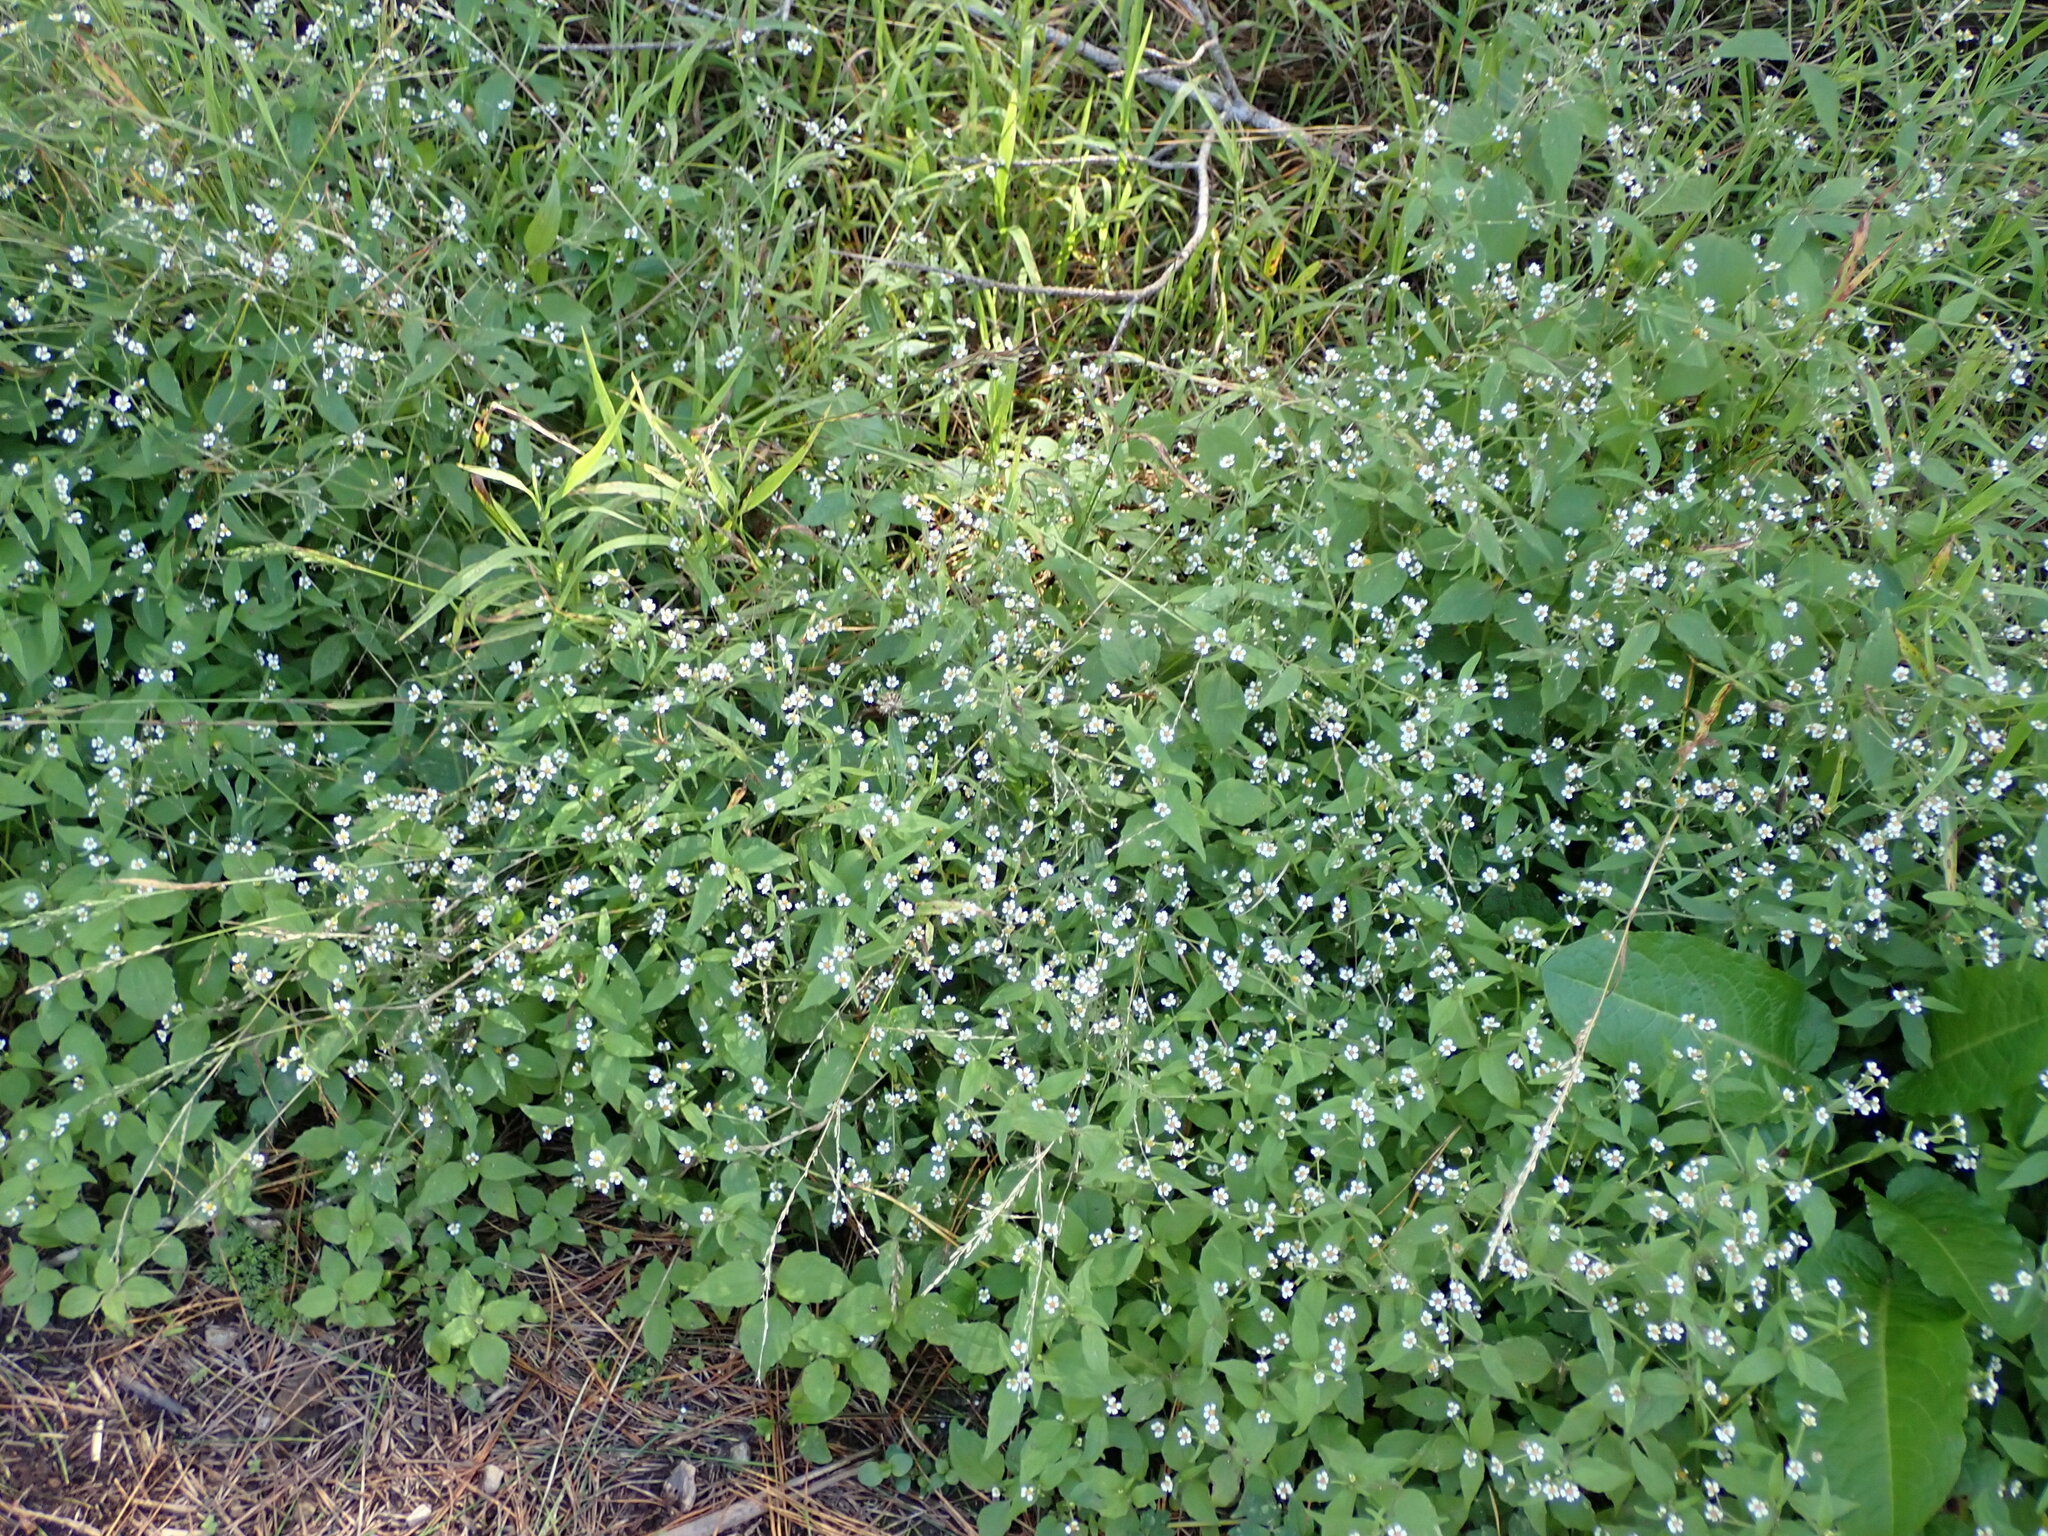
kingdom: Plantae
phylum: Tracheophyta
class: Magnoliopsida
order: Asterales
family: Asteraceae
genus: Galinsoga
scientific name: Galinsoga quadriradiata
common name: Shaggy soldier
